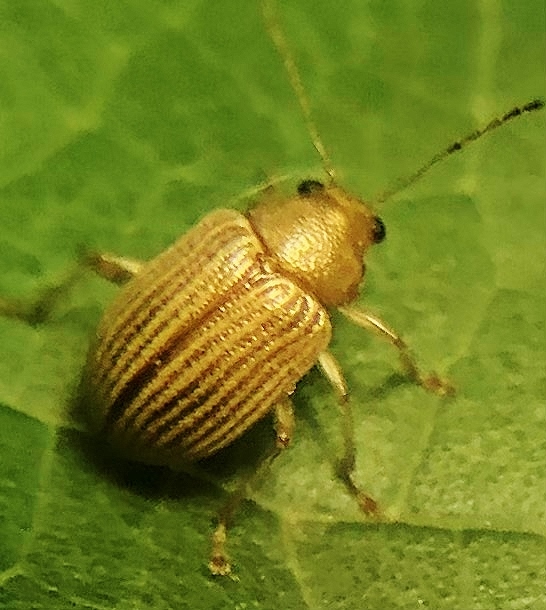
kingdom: Animalia
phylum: Arthropoda
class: Insecta
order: Coleoptera
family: Chrysomelidae
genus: Colaspis
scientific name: Colaspis brunnea
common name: Grape colaspis
